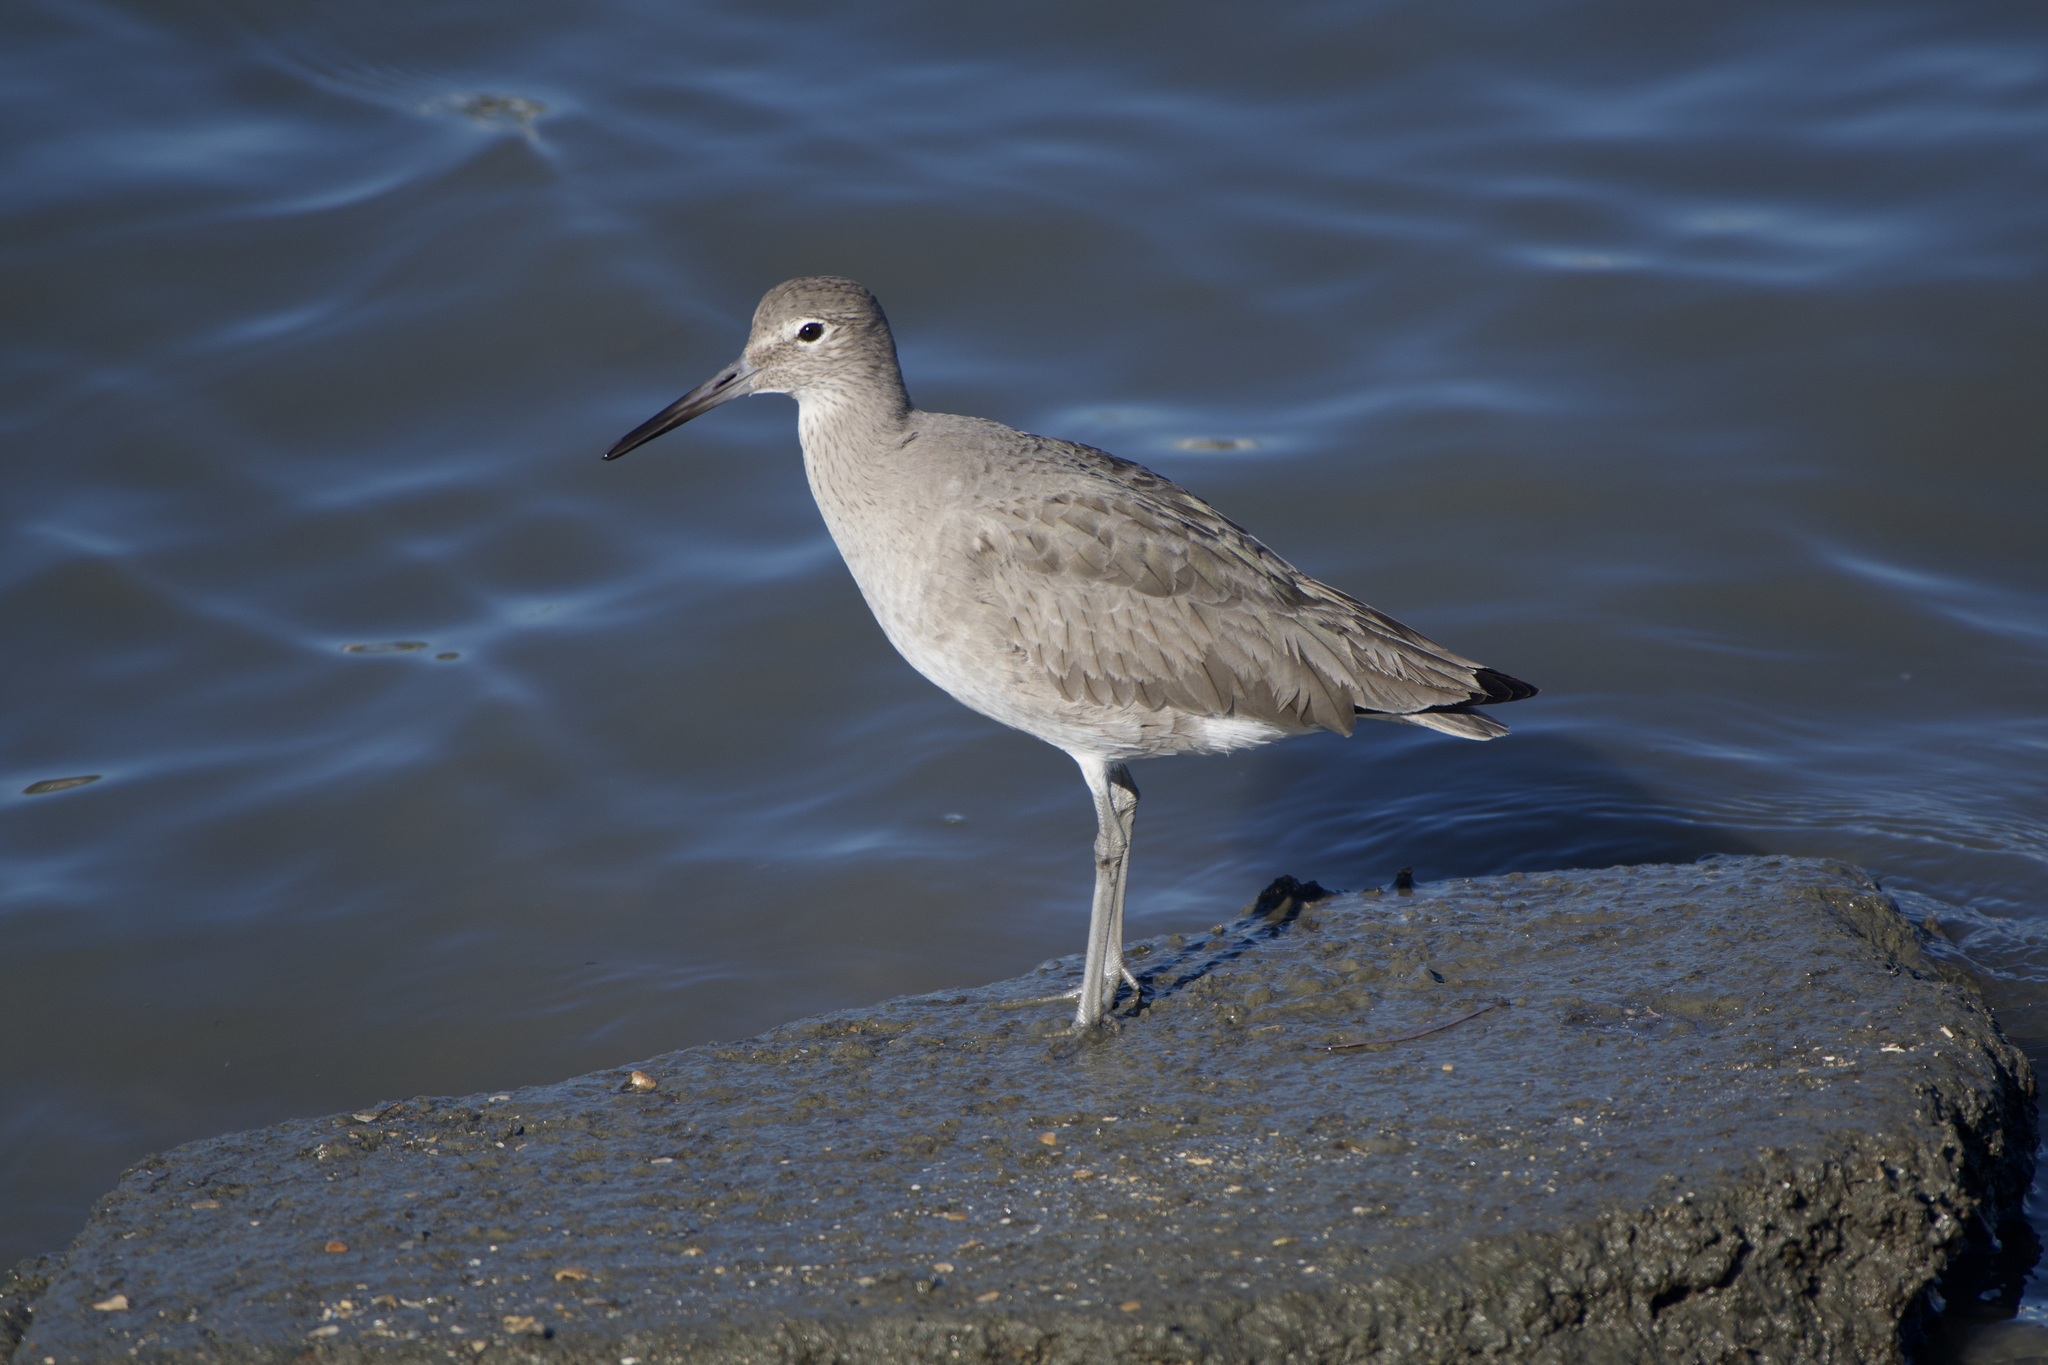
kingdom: Animalia
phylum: Chordata
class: Aves
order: Charadriiformes
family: Scolopacidae
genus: Tringa
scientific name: Tringa semipalmata
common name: Willet
